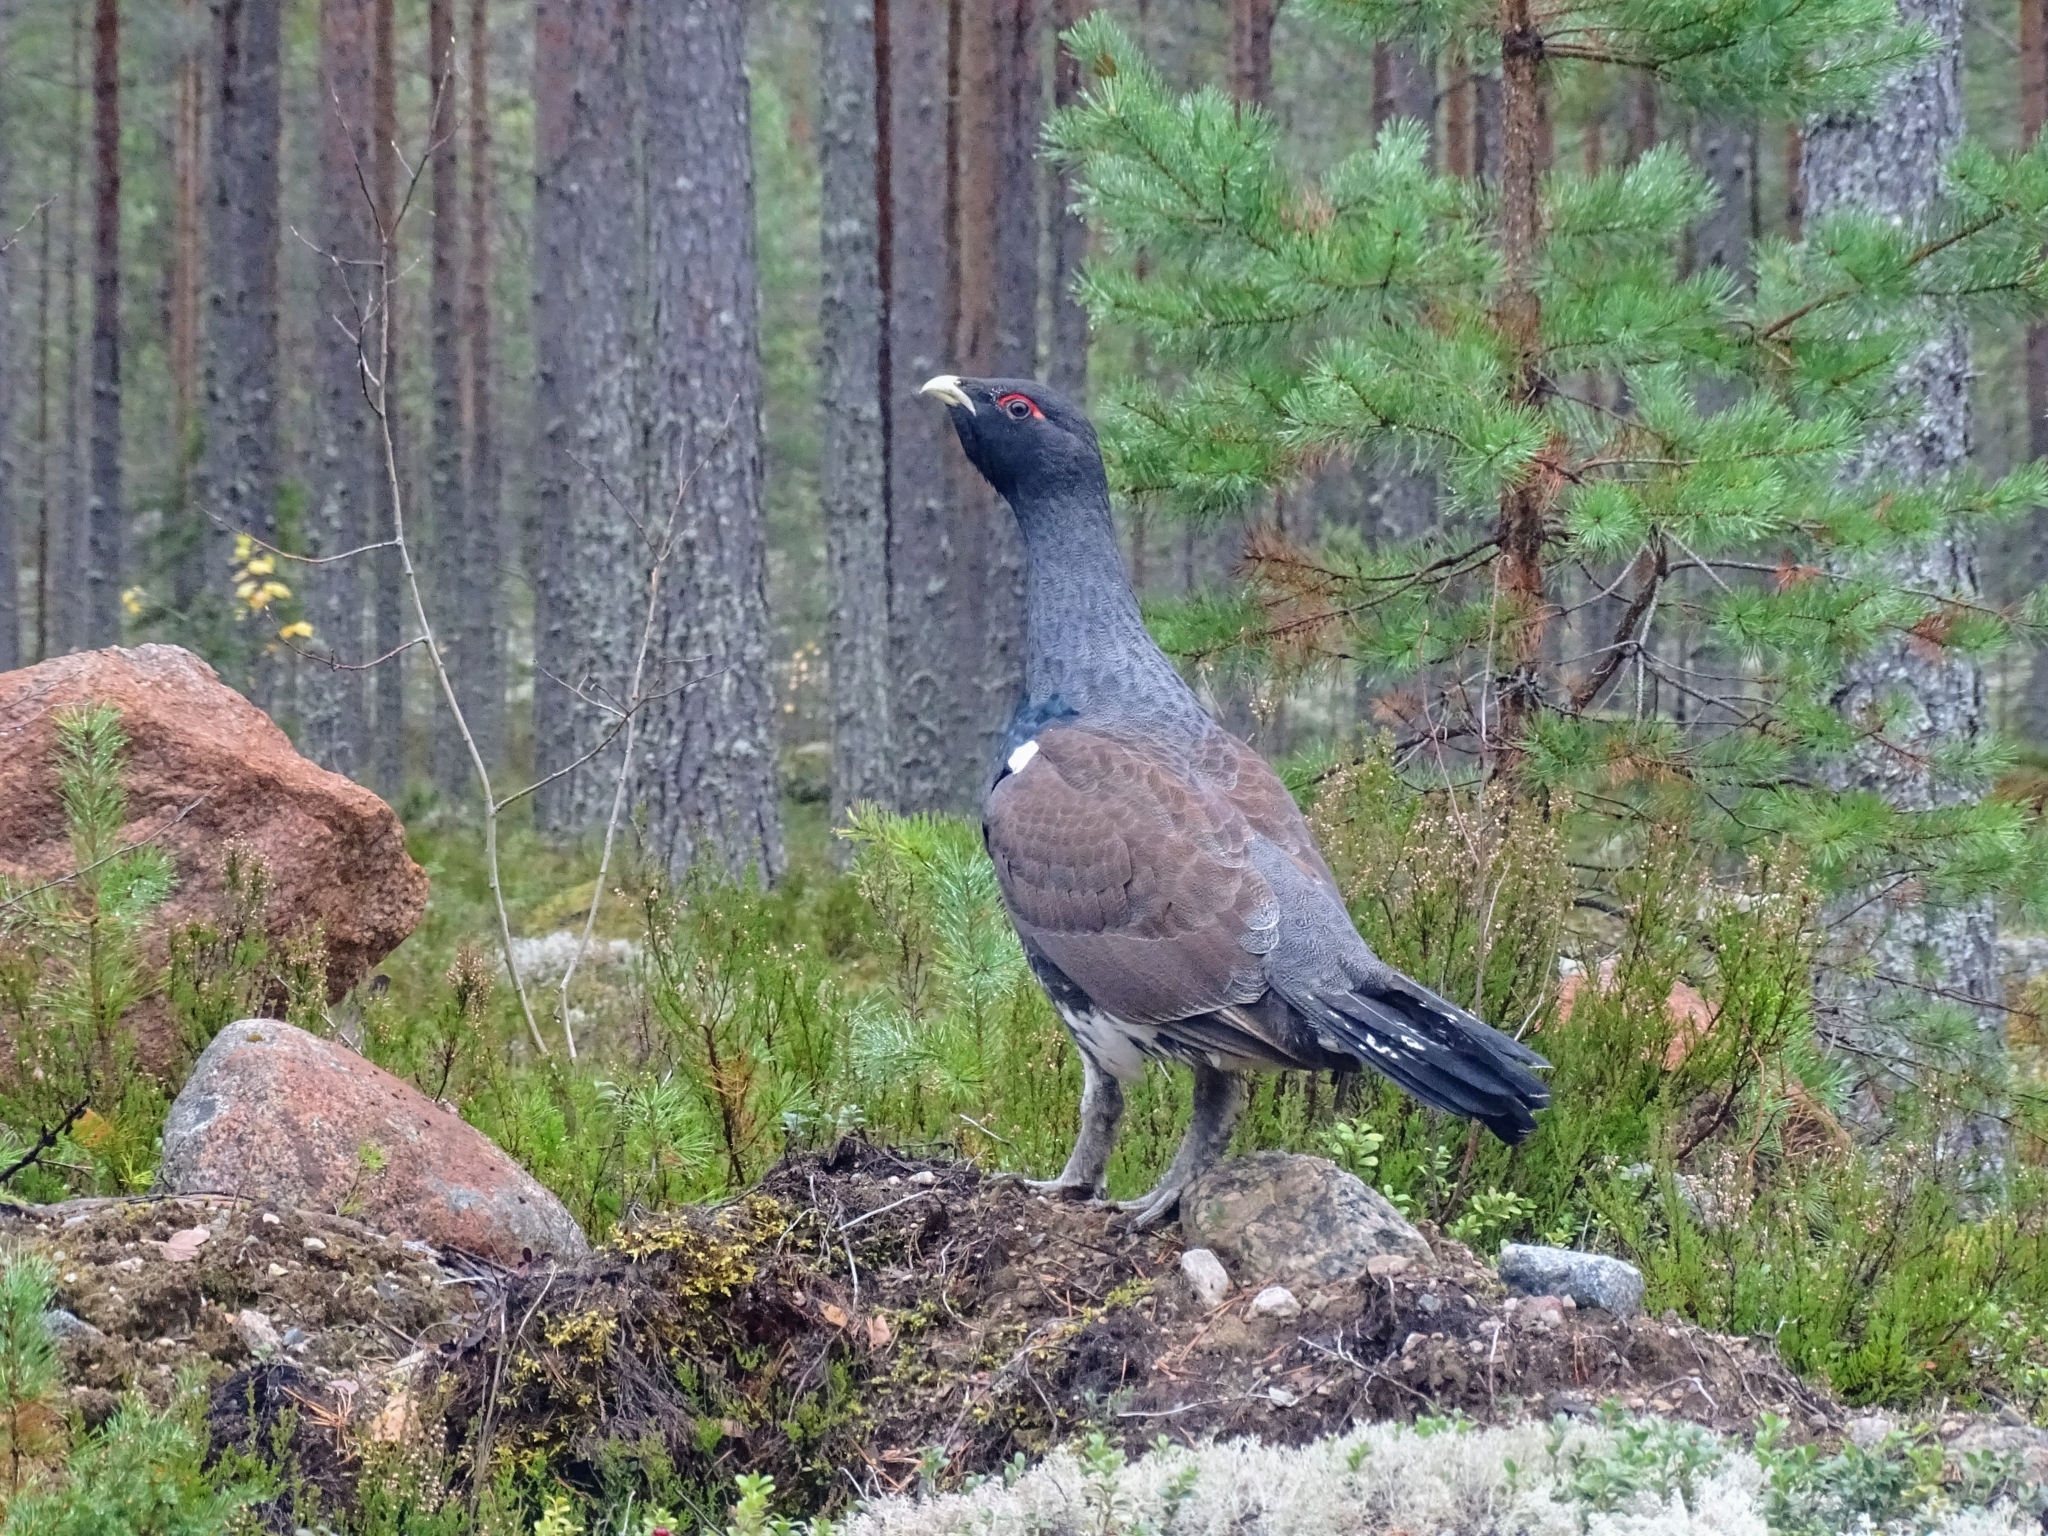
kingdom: Animalia
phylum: Chordata
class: Aves
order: Galliformes
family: Phasianidae
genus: Tetrao
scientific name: Tetrao urogallus
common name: Western capercaillie
